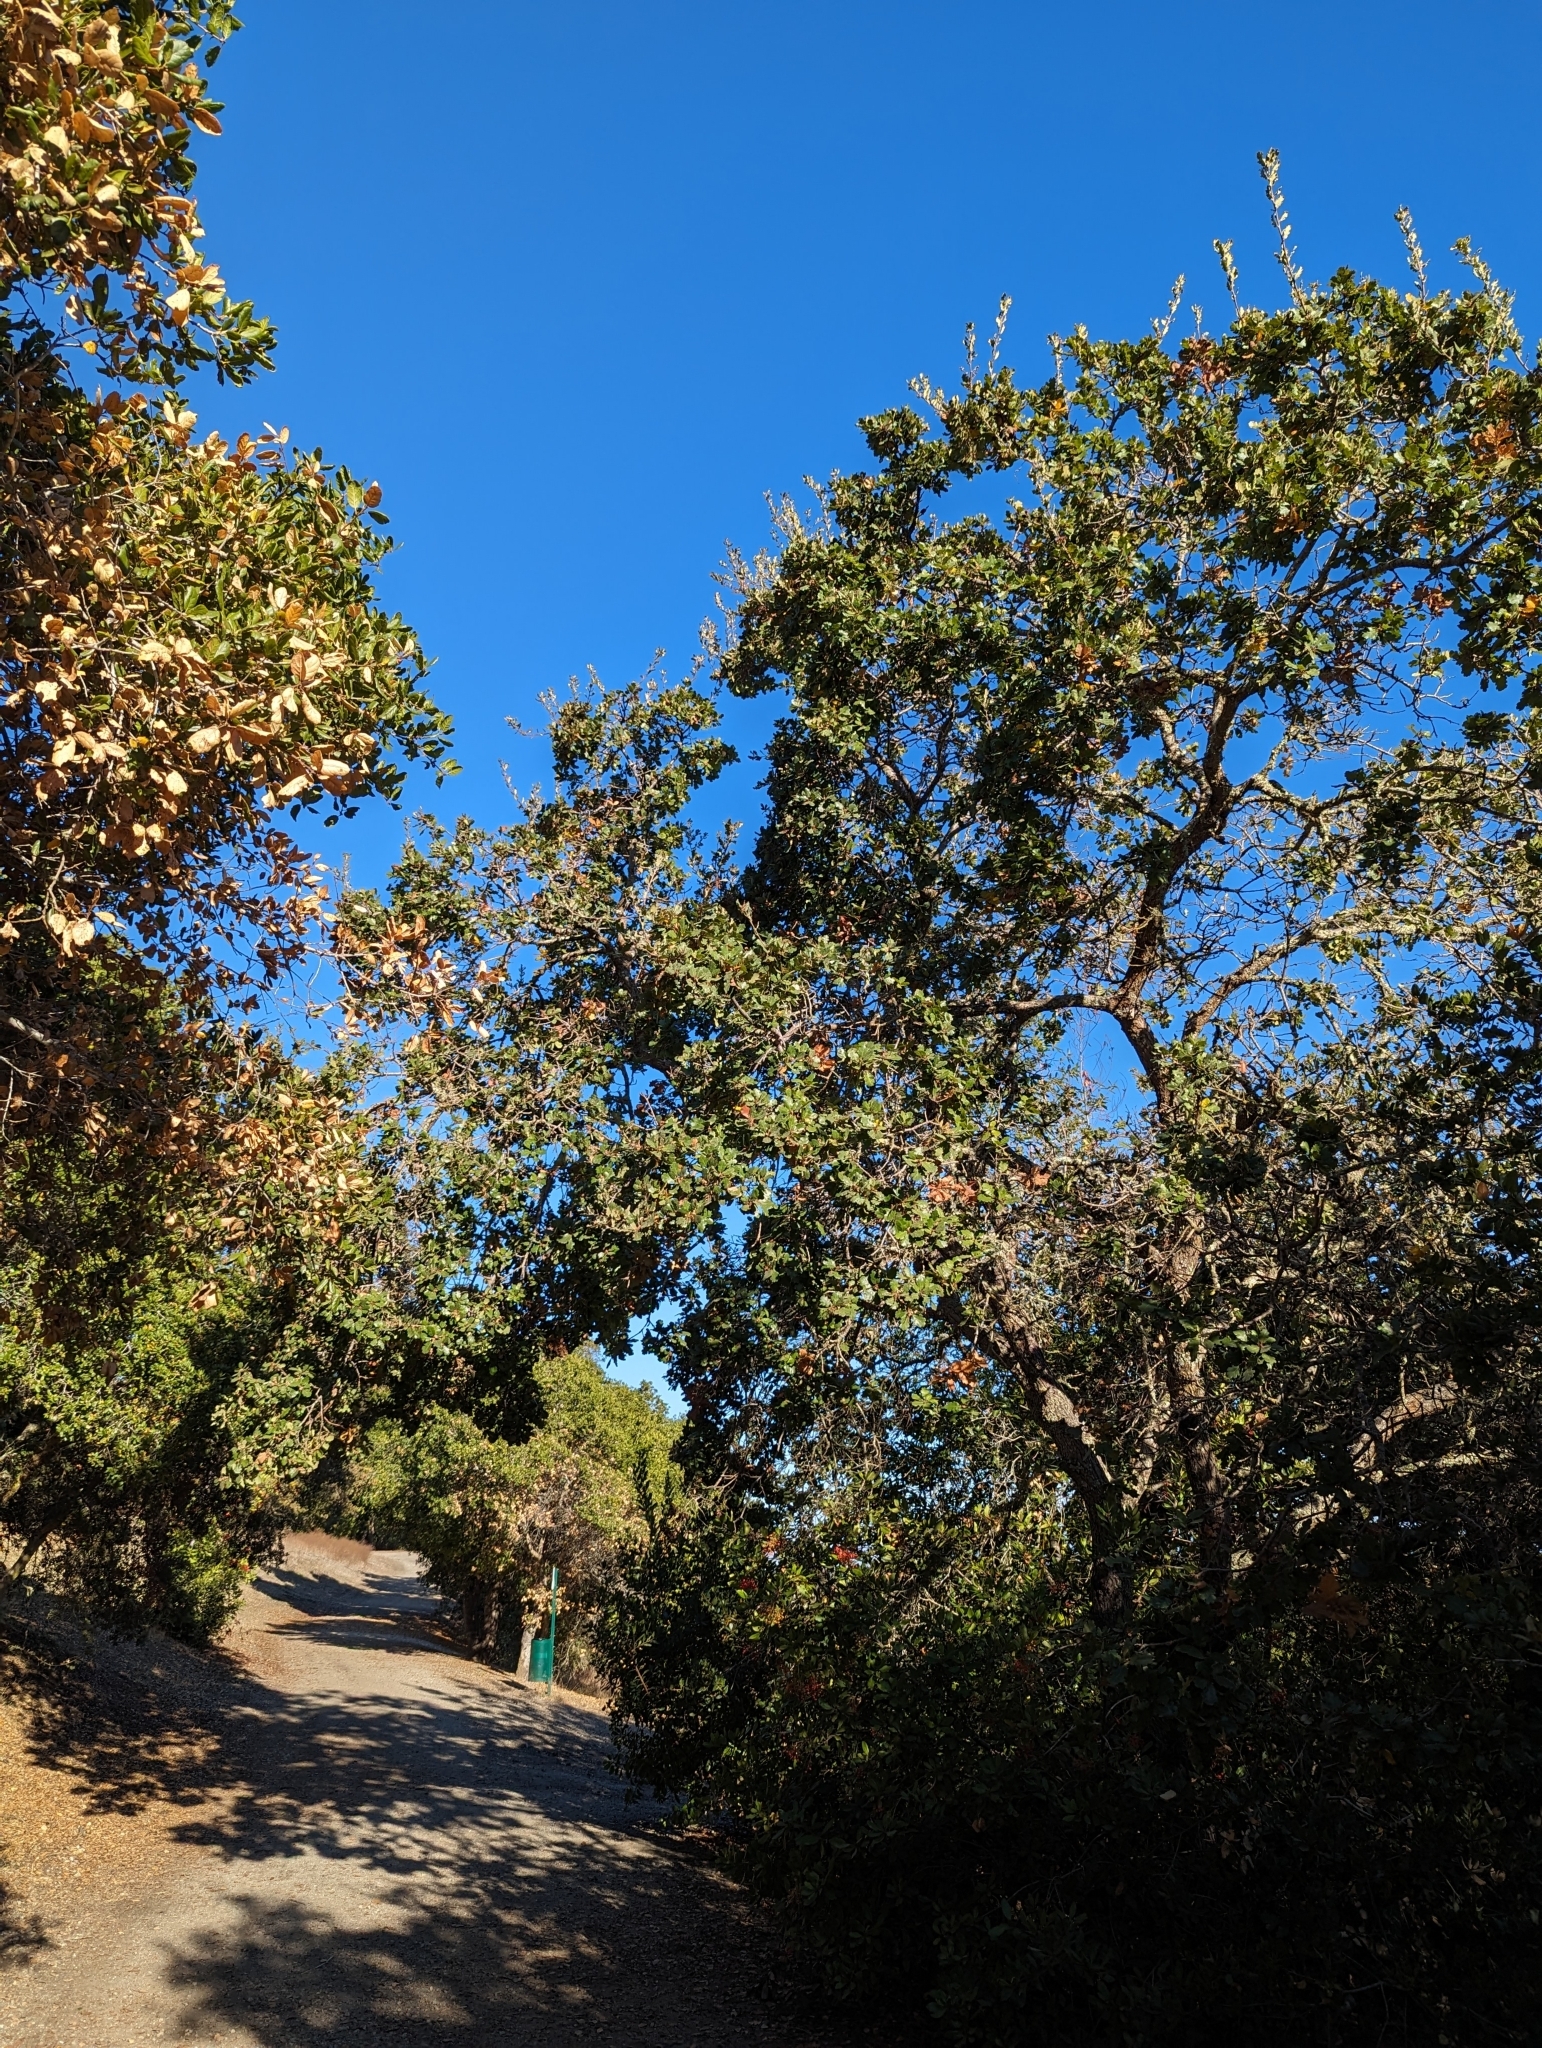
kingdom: Plantae
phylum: Tracheophyta
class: Magnoliopsida
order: Fagales
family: Fagaceae
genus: Quercus
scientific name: Quercus jolonensis
